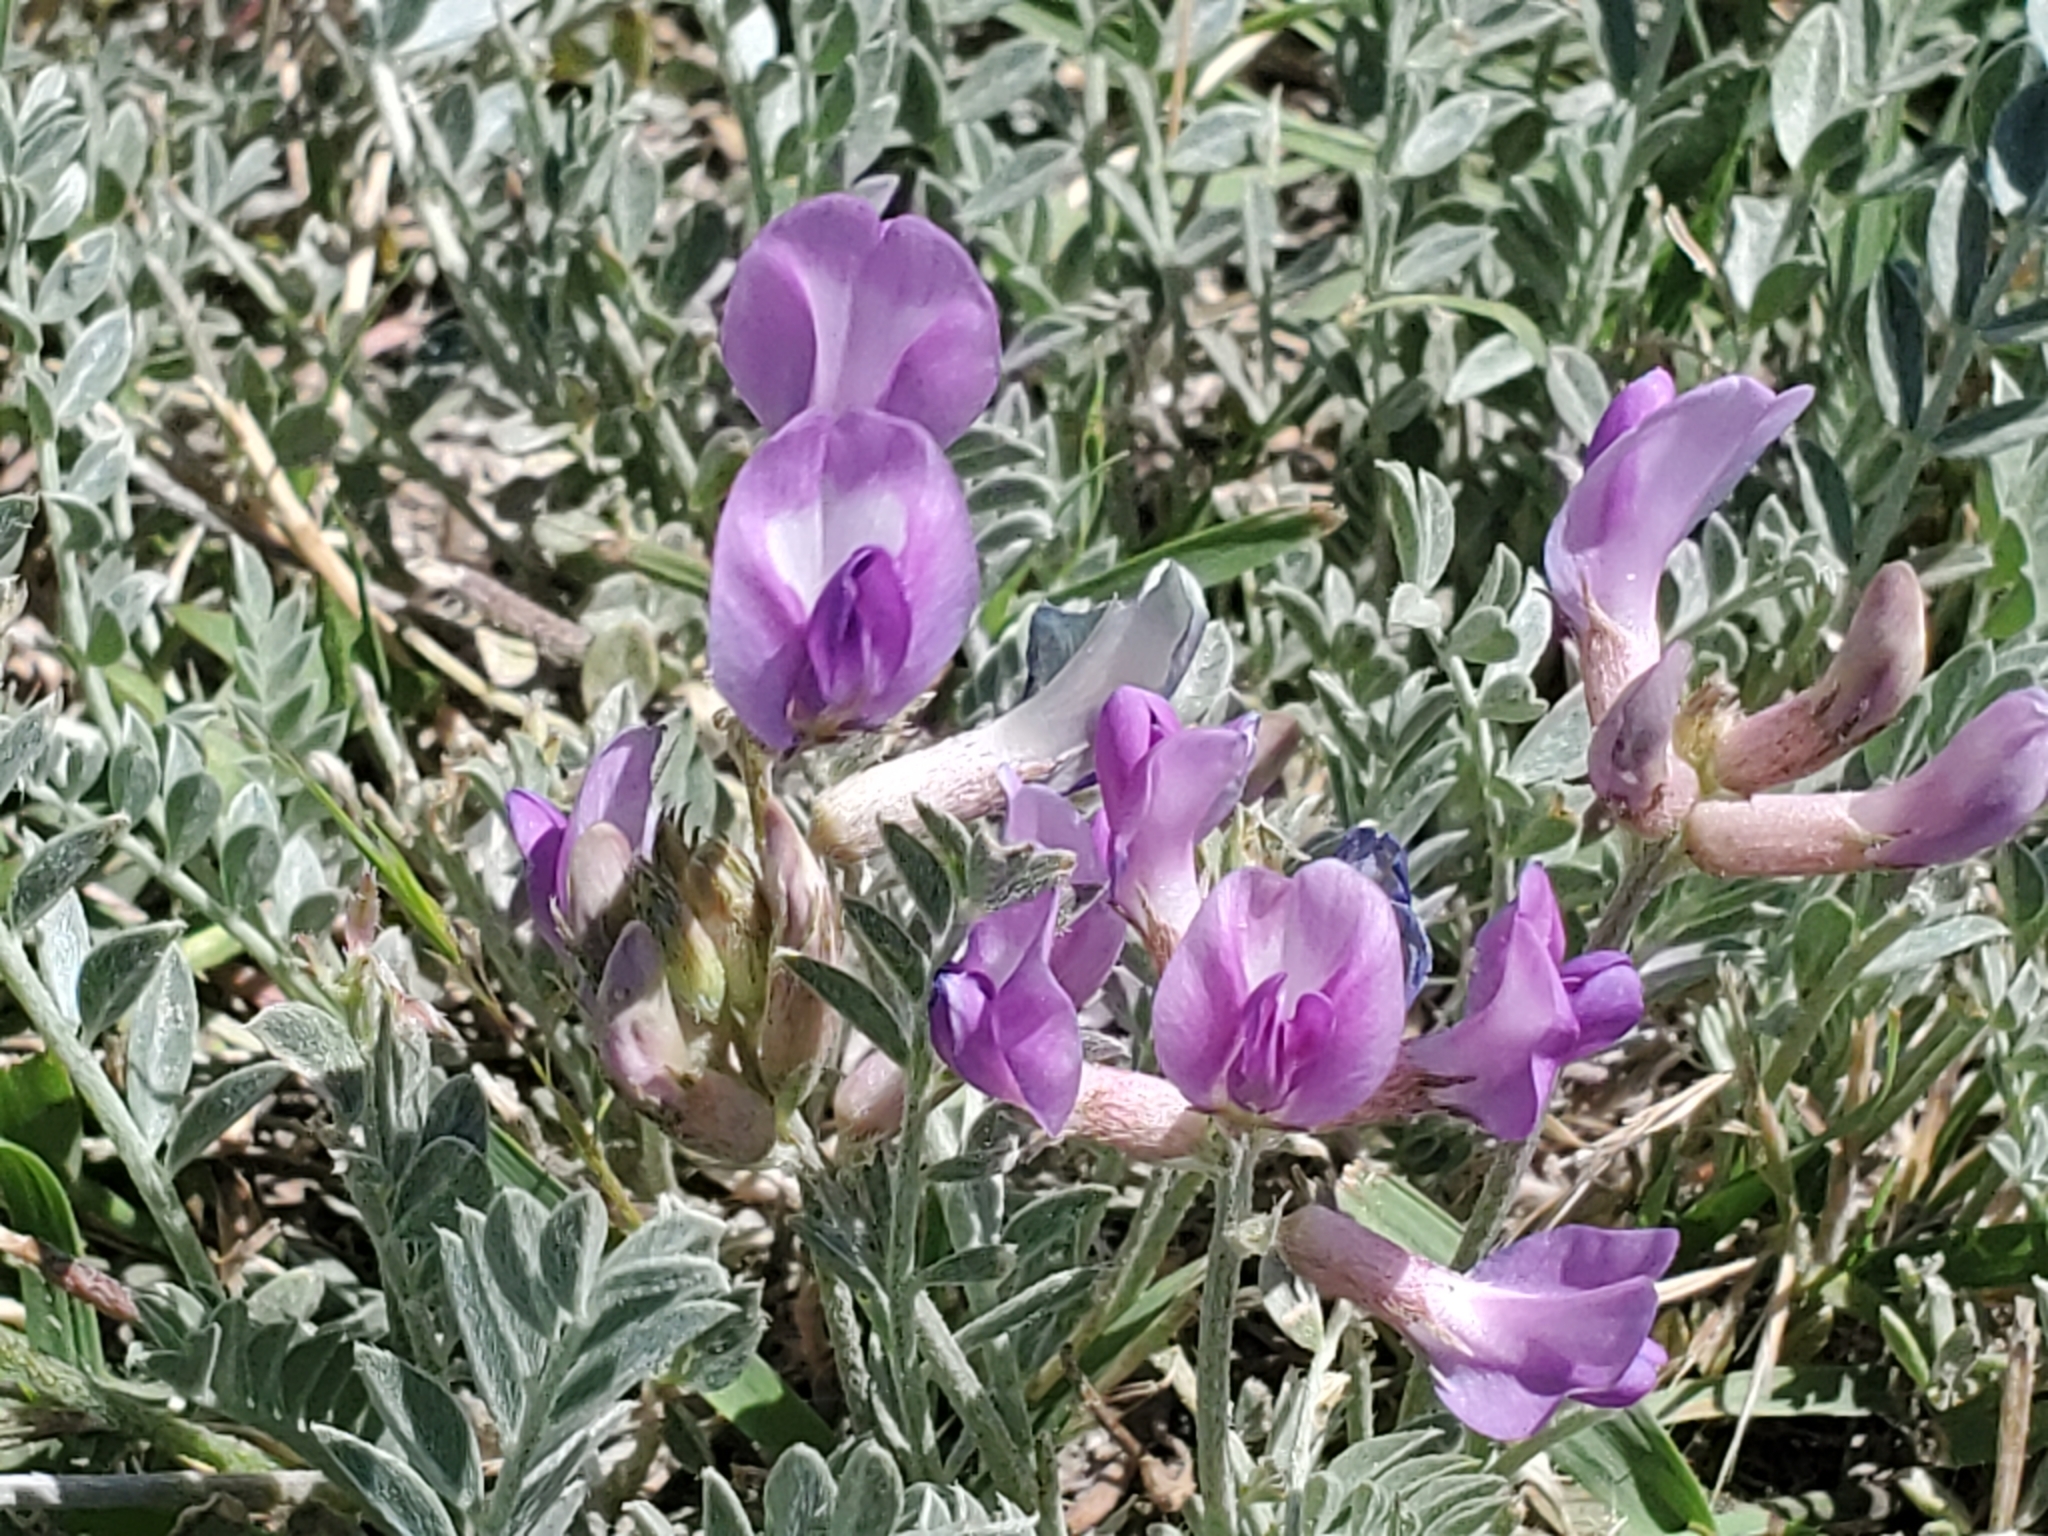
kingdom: Plantae
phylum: Tracheophyta
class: Magnoliopsida
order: Fabales
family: Fabaceae
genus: Astragalus
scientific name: Astragalus missouriensis
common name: Missouri milk-vetch
